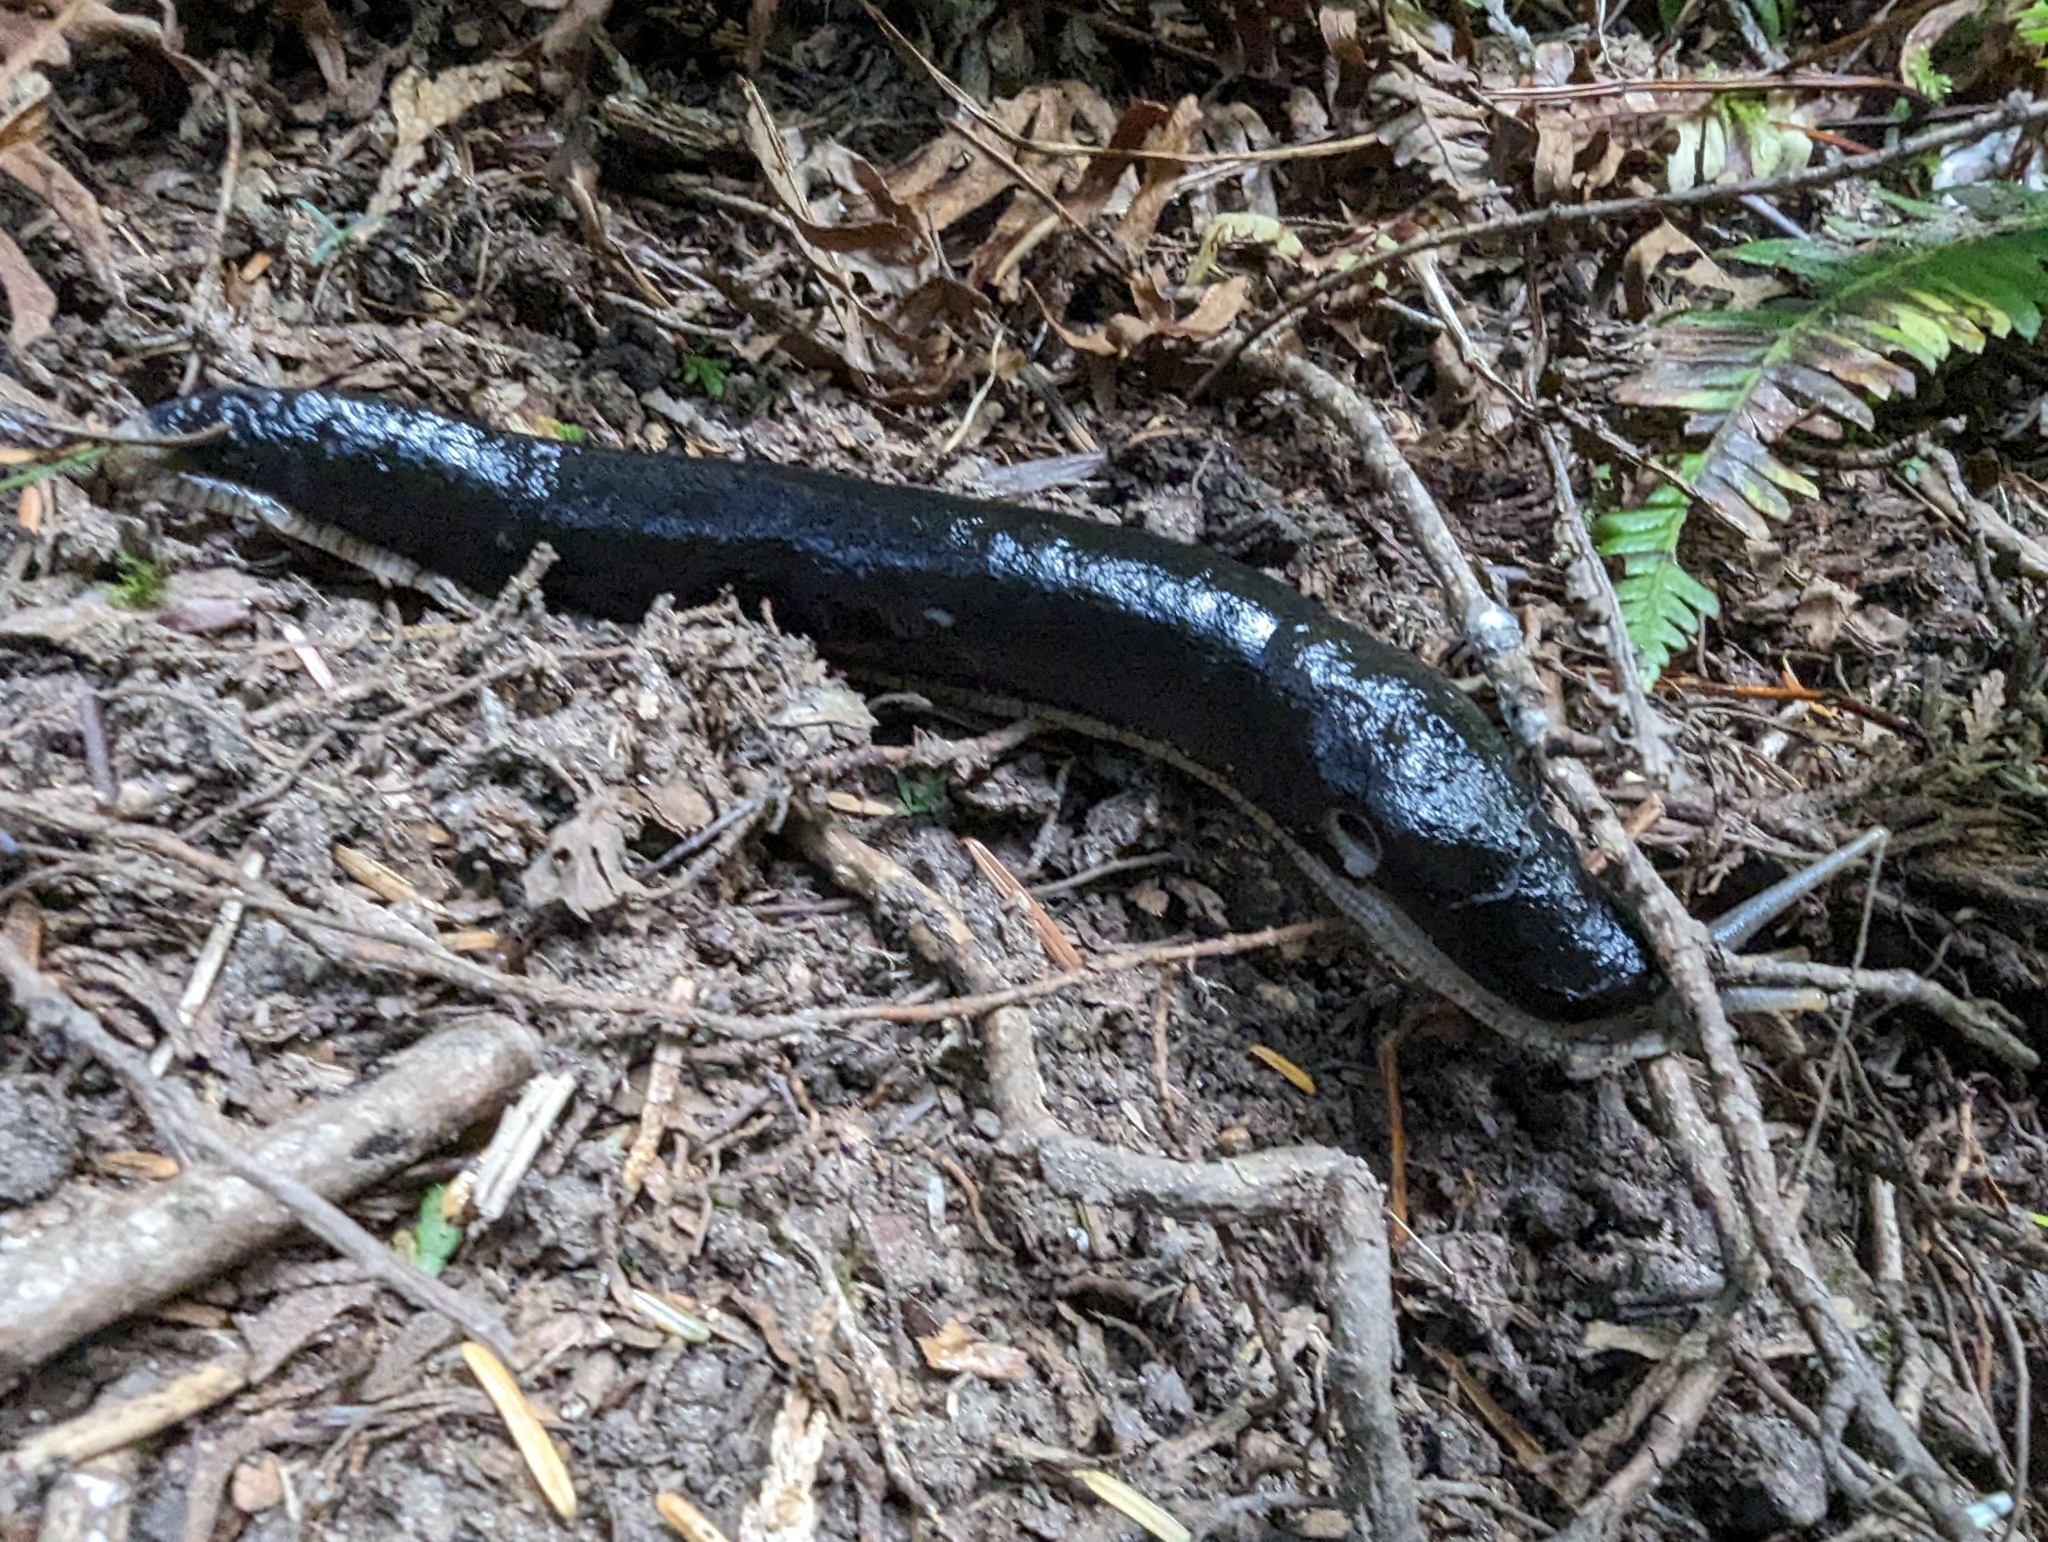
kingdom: Animalia
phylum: Mollusca
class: Gastropoda
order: Stylommatophora
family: Ariolimacidae
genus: Ariolimax
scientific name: Ariolimax columbianus
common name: Pacific banana slug
